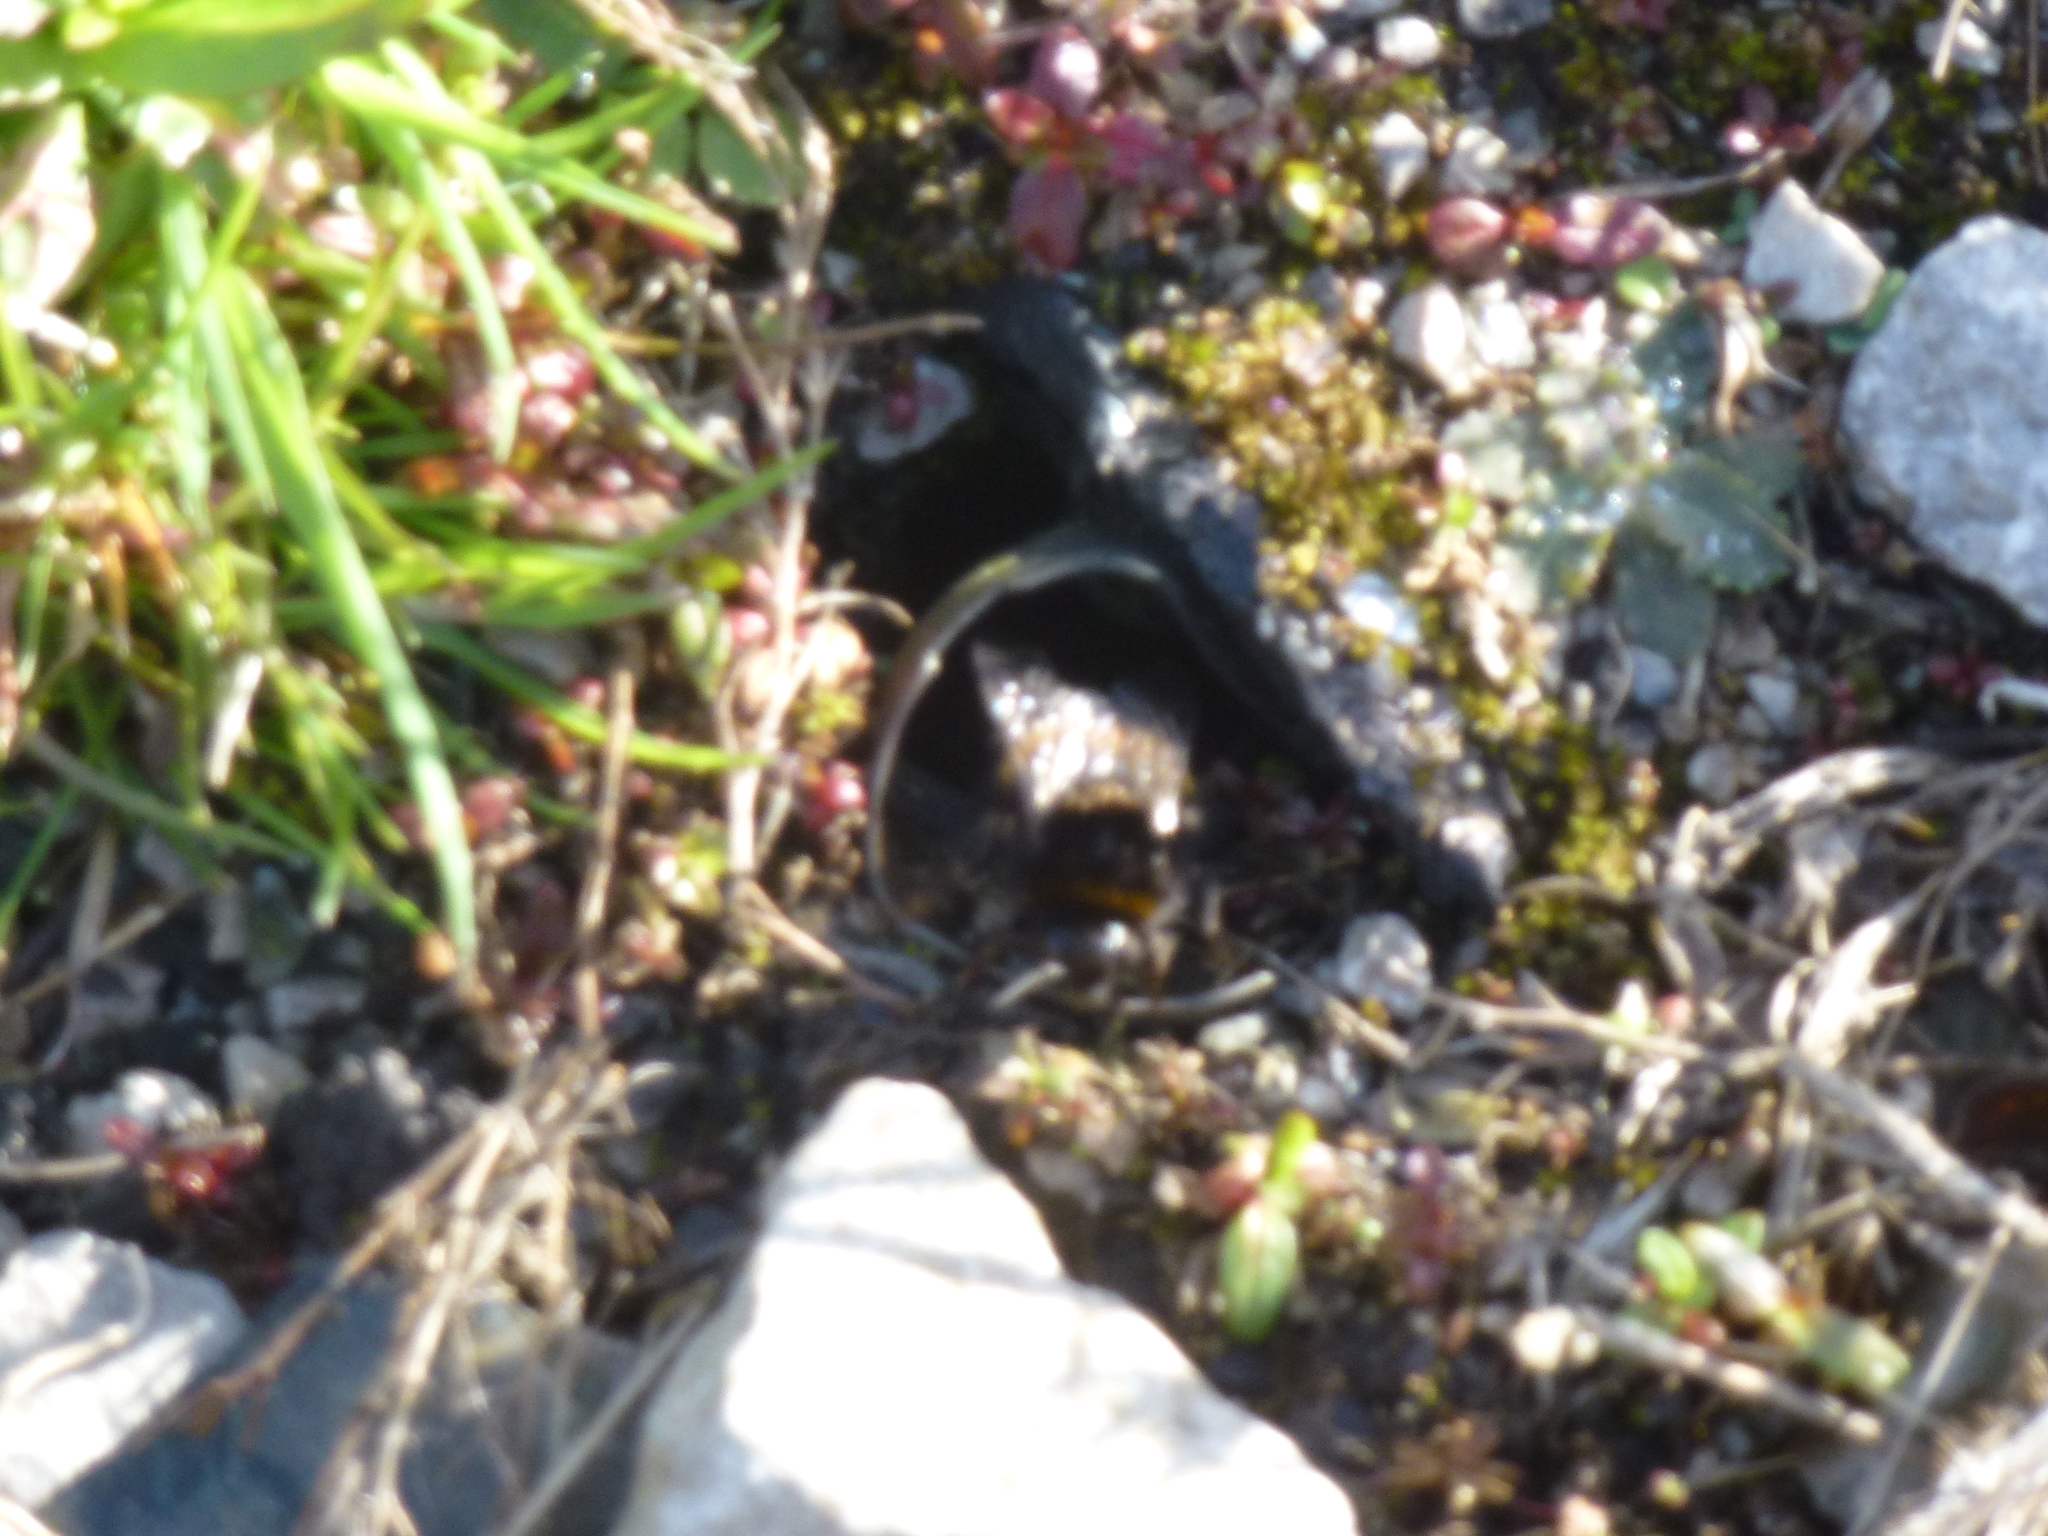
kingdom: Animalia
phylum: Arthropoda
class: Insecta
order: Hymenoptera
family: Apidae
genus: Bombus
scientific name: Bombus terrestris
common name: Buff-tailed bumblebee
